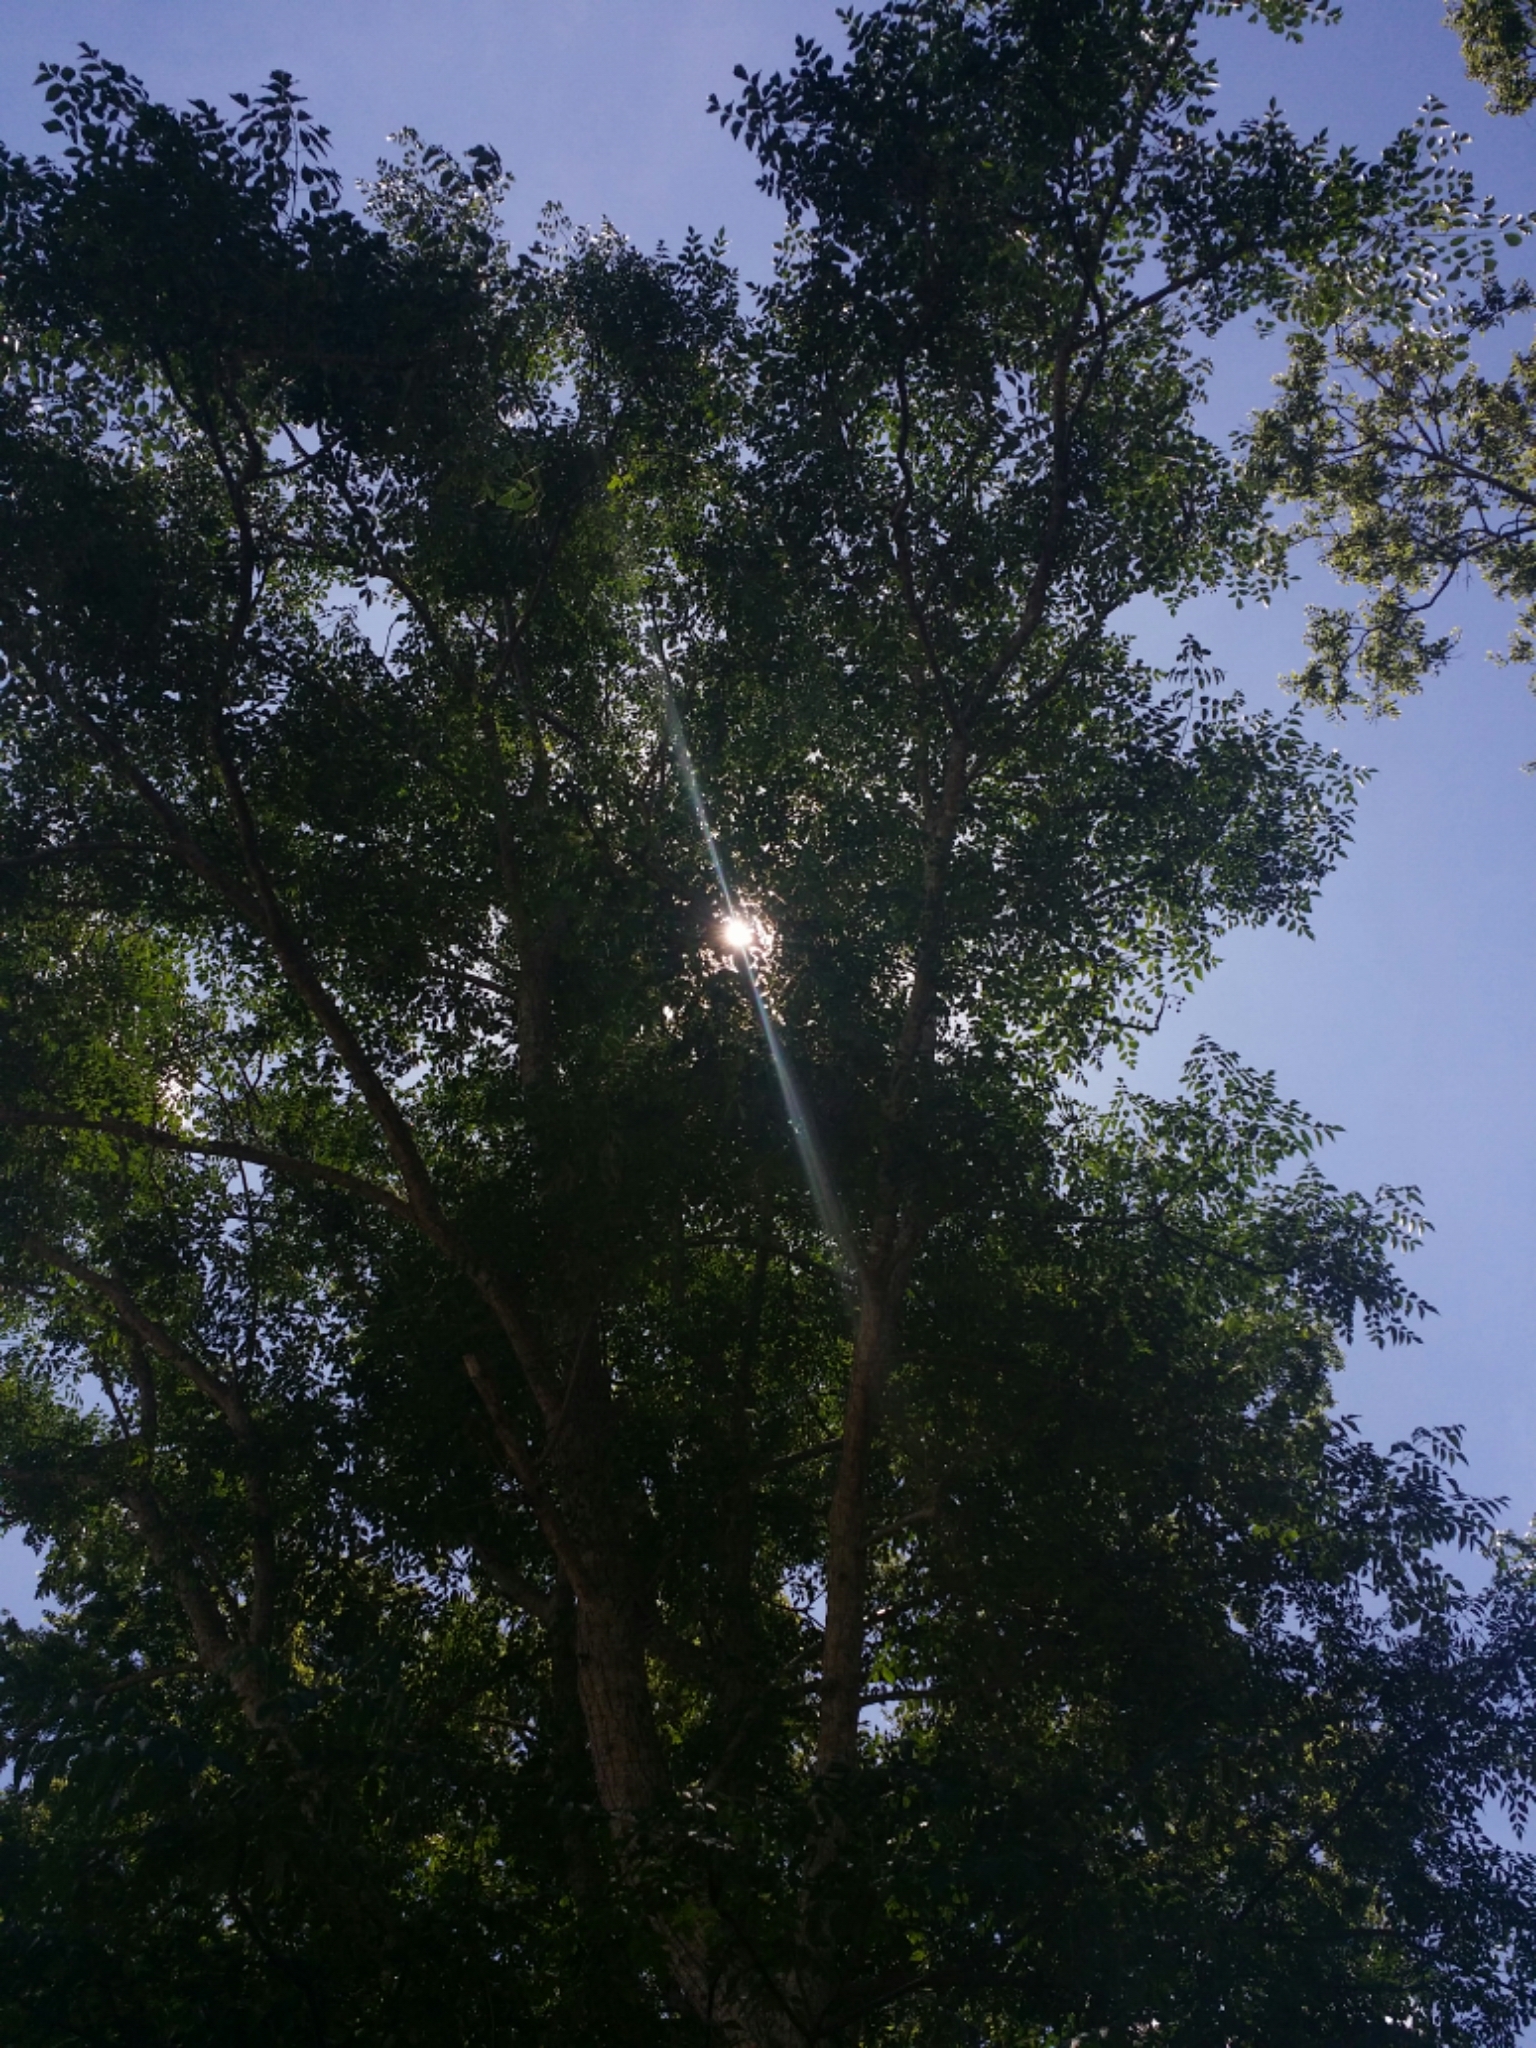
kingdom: Plantae
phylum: Tracheophyta
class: Magnoliopsida
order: Sapindales
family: Meliaceae
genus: Melia
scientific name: Melia azedarach
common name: Chinaberrytree
